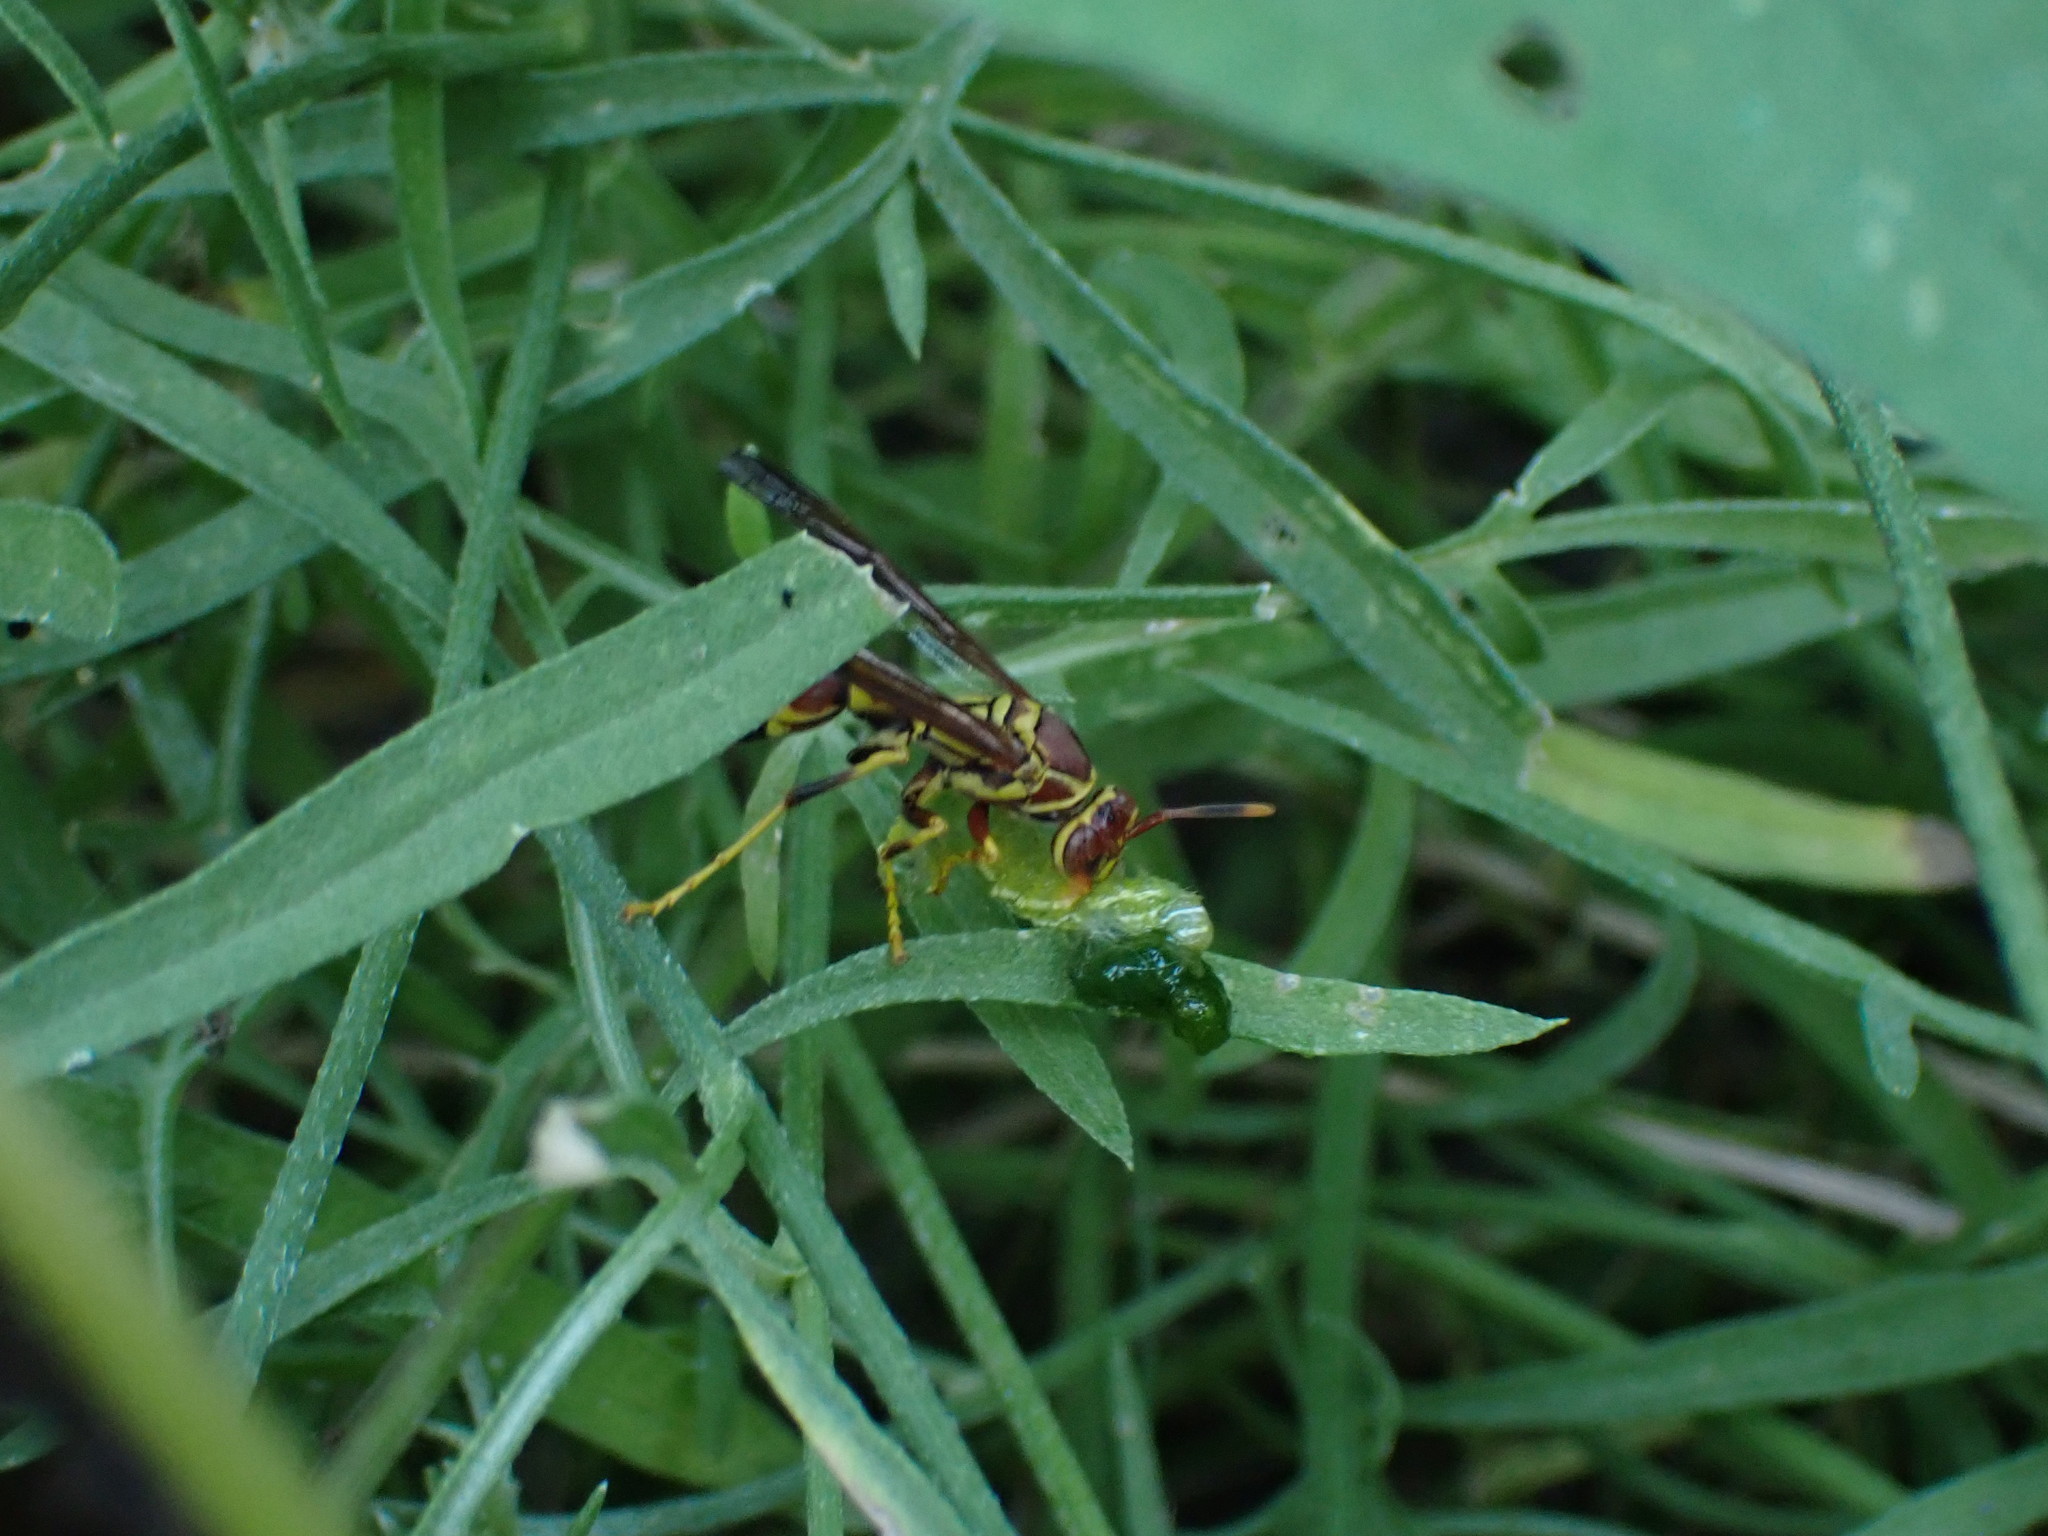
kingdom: Animalia
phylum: Arthropoda
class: Insecta
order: Hymenoptera
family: Eumenidae
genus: Polistes
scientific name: Polistes exclamans
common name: Paper wasp
